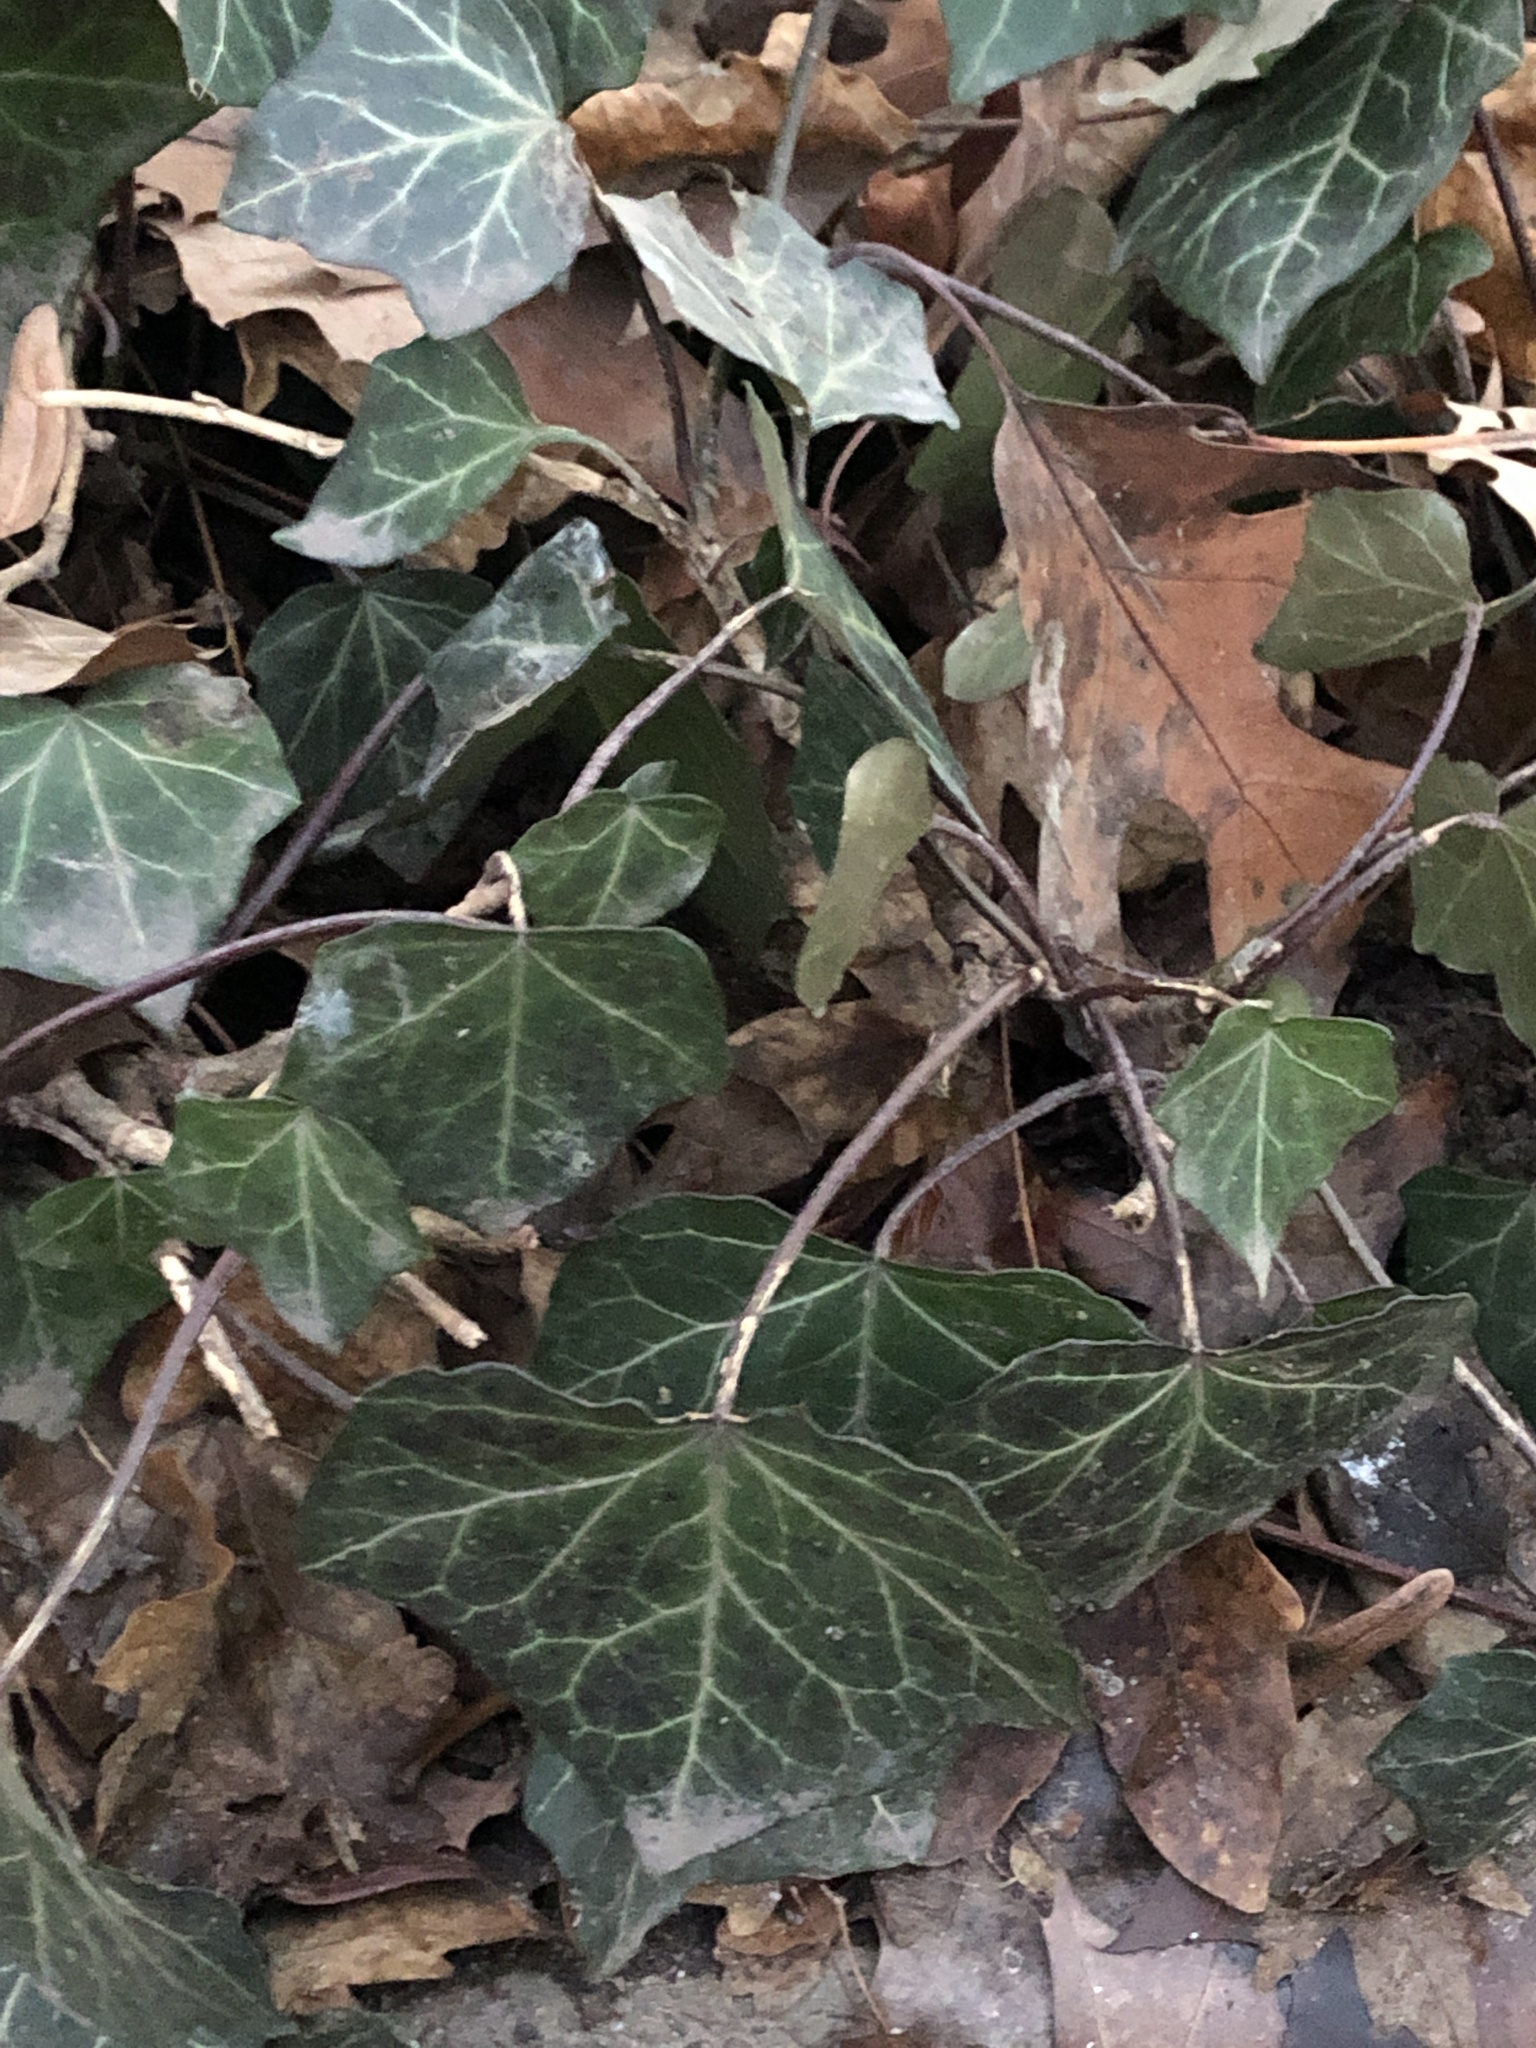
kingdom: Plantae
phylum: Tracheophyta
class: Magnoliopsida
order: Apiales
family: Araliaceae
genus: Hedera
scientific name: Hedera helix
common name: Ivy
